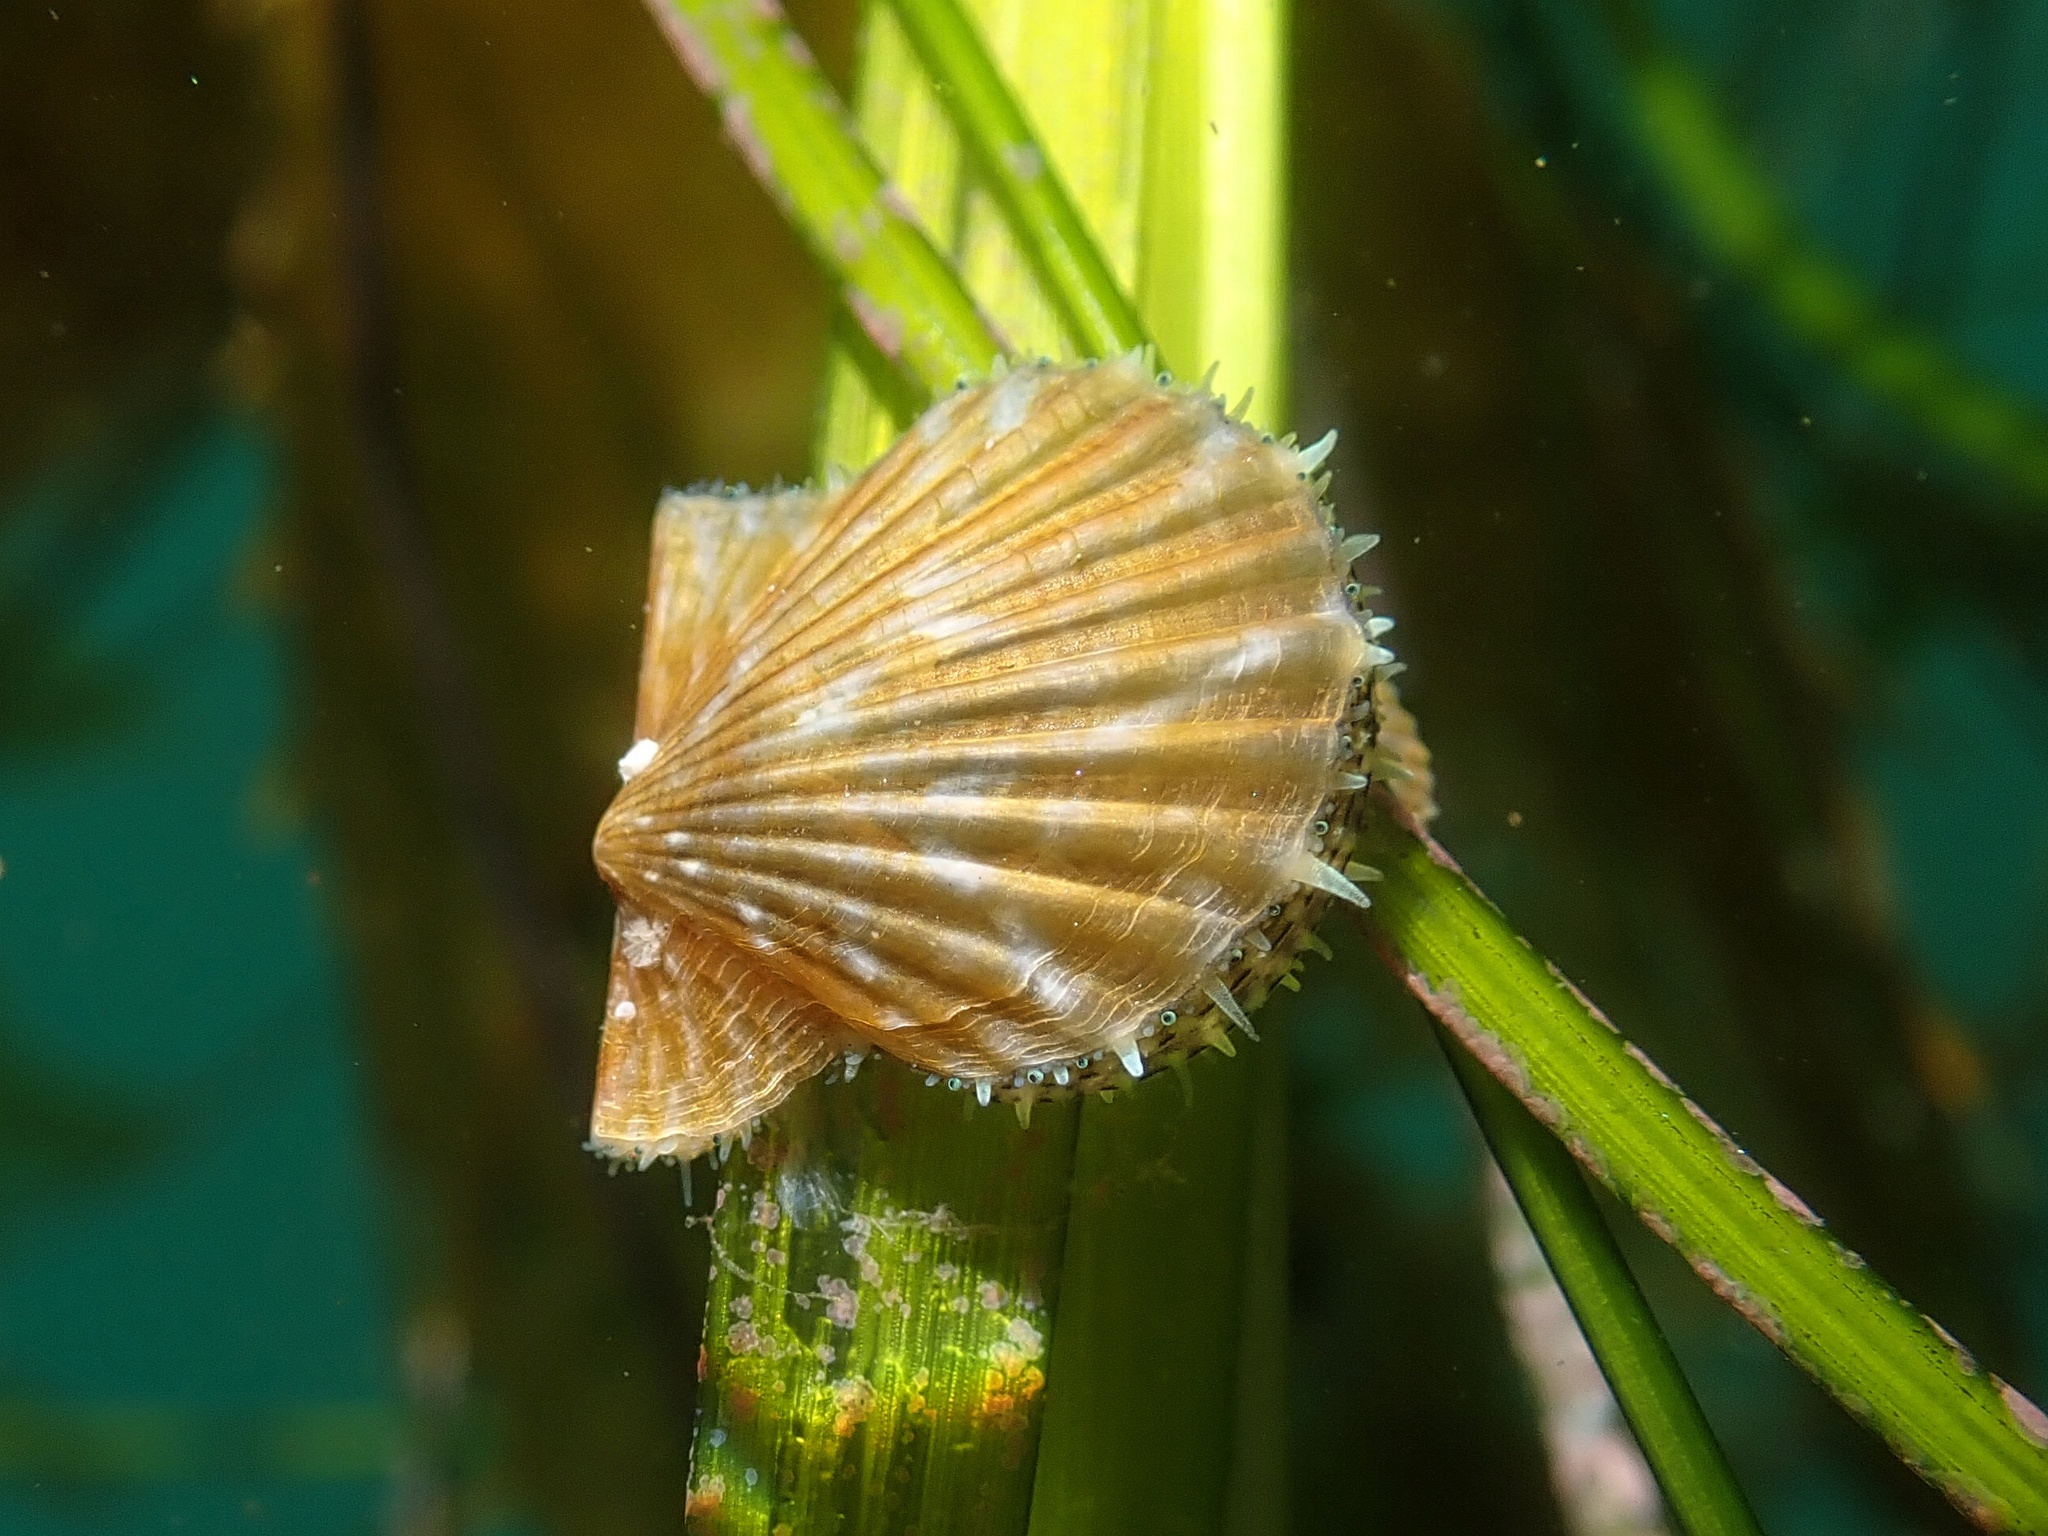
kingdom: Animalia
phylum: Mollusca
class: Bivalvia
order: Pectinida
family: Pectinidae
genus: Leptopecten
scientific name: Leptopecten latiauratus
